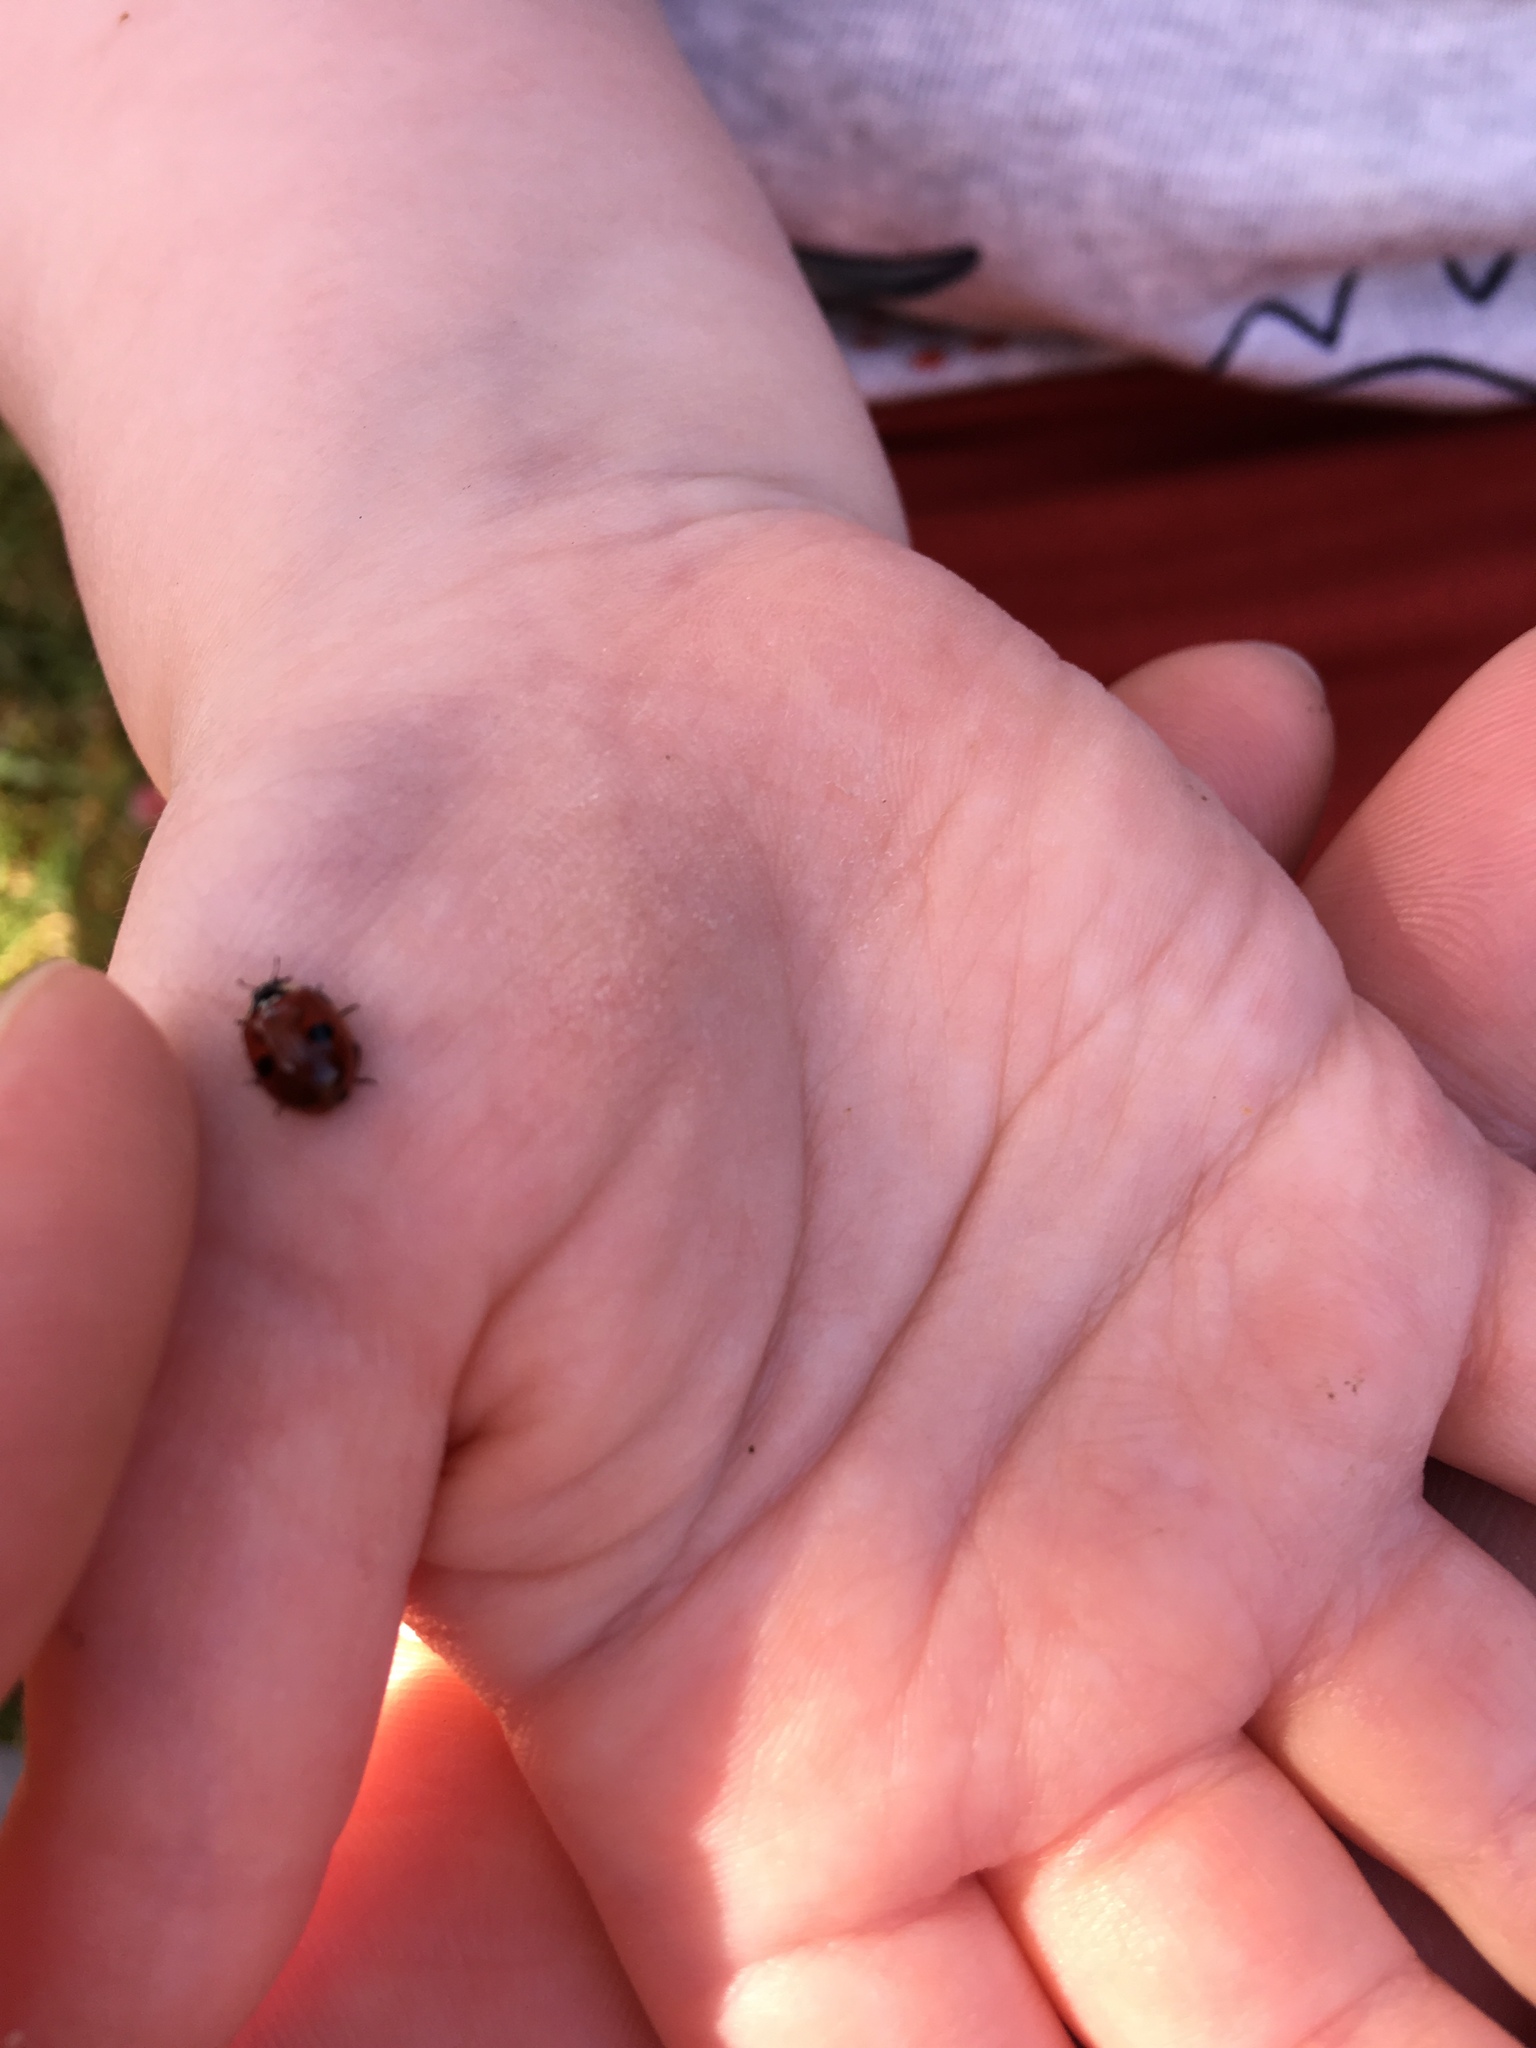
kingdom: Animalia
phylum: Arthropoda
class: Insecta
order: Coleoptera
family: Coccinellidae
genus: Adalia
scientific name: Adalia bipunctata
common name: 2-spot ladybird
